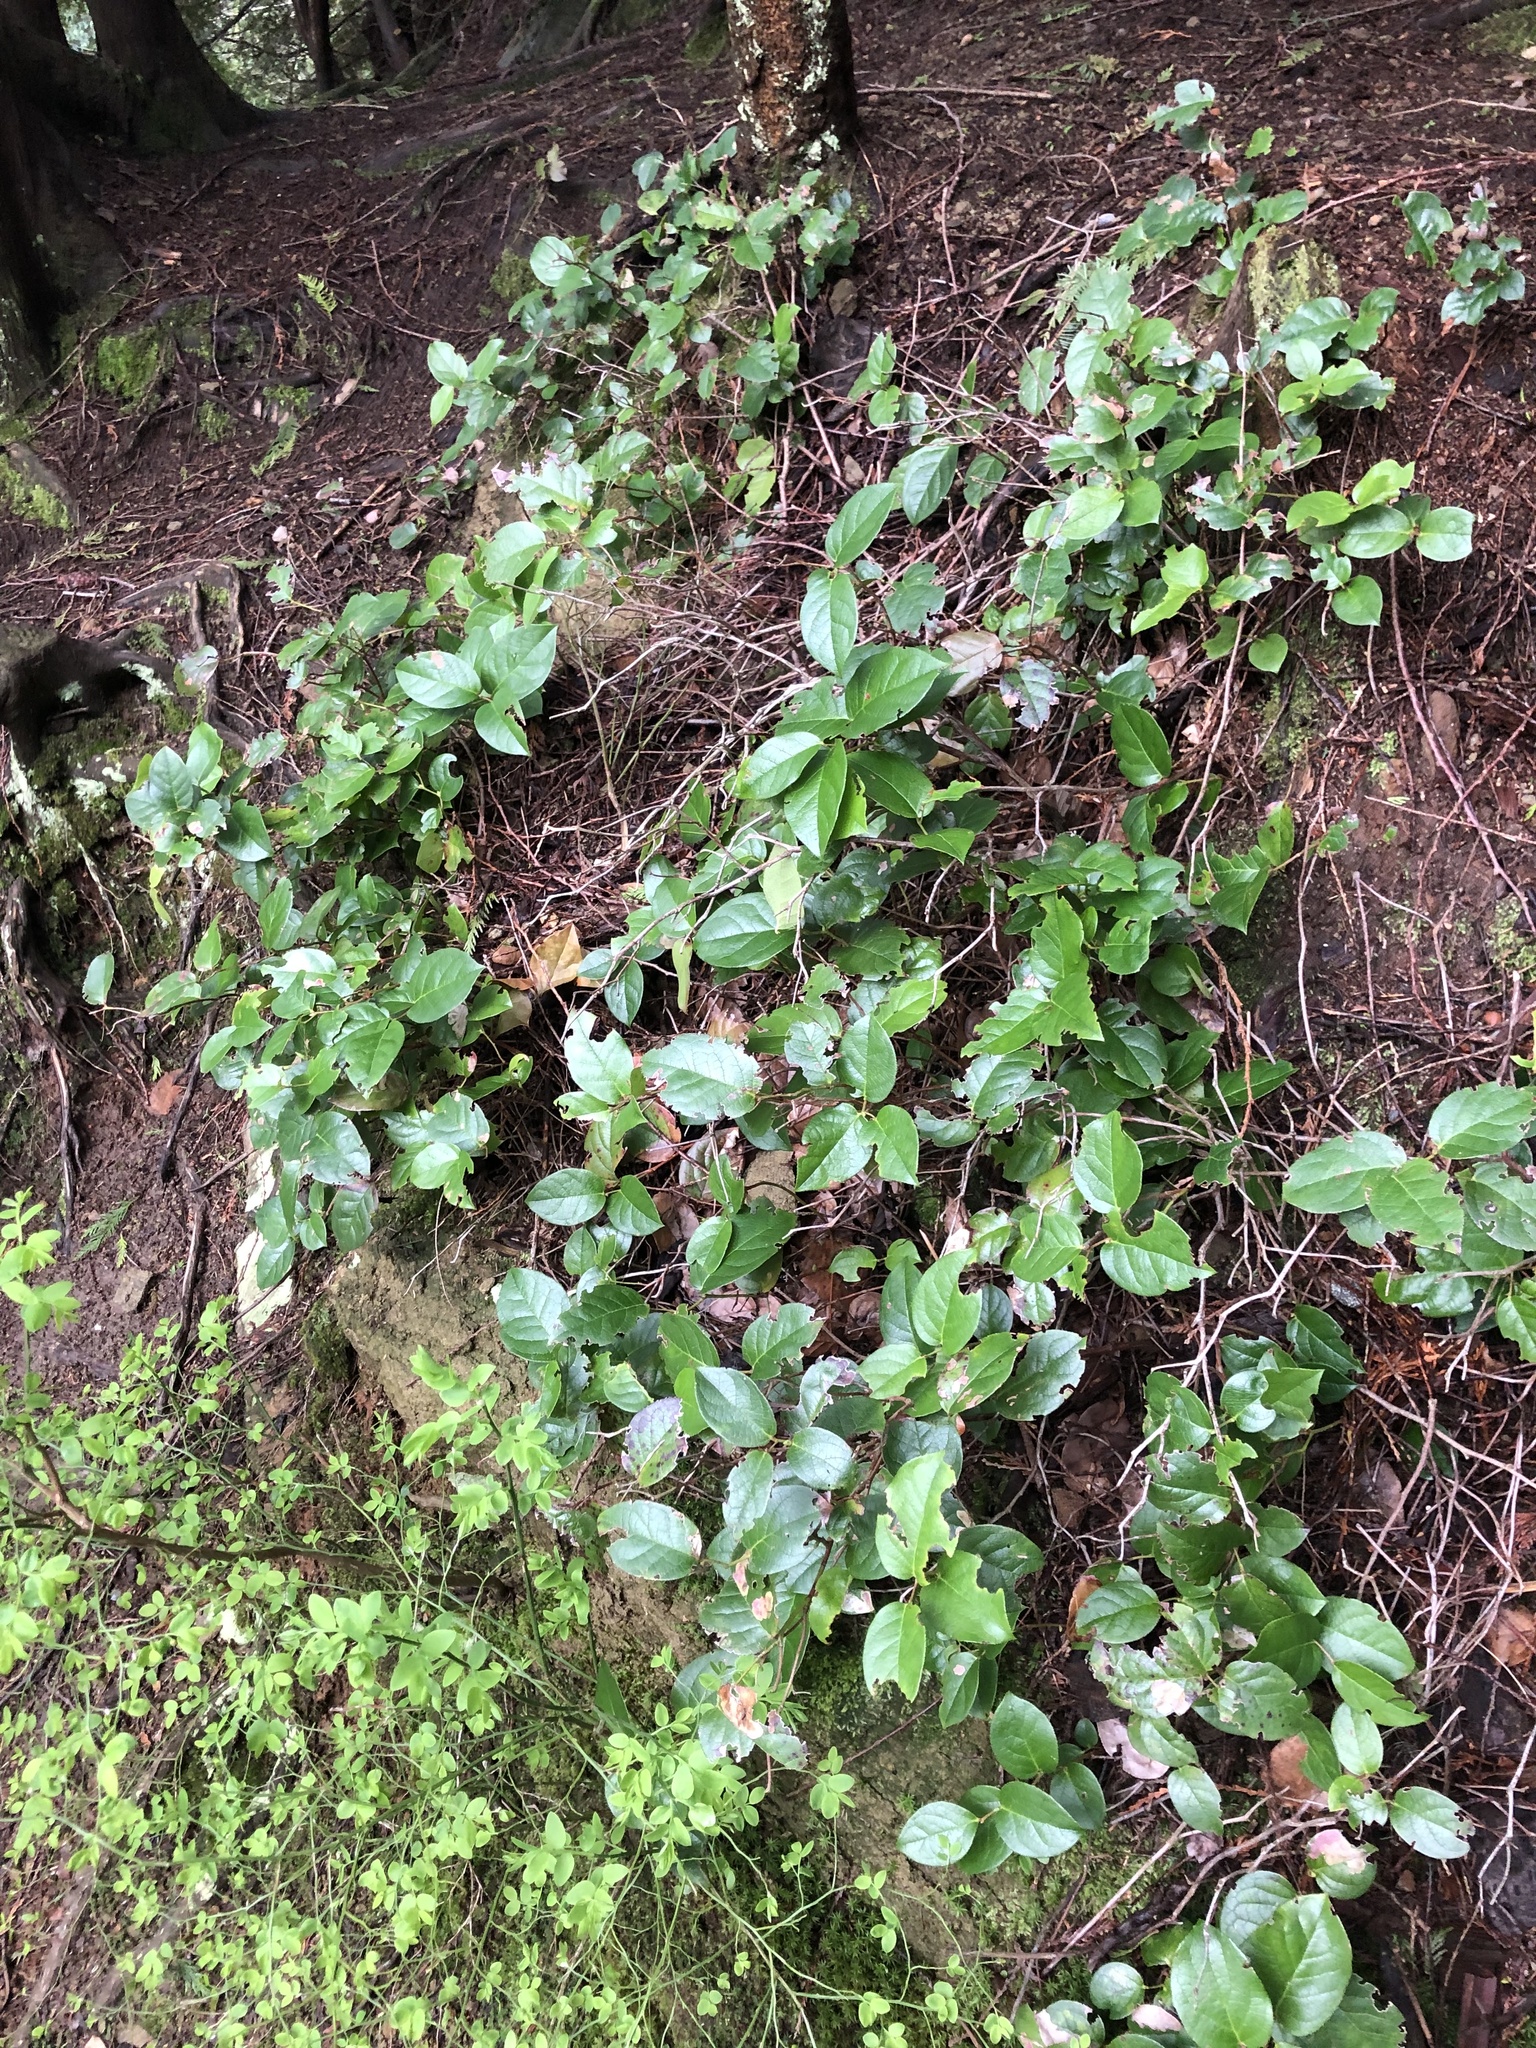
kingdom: Plantae
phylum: Tracheophyta
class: Magnoliopsida
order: Ericales
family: Ericaceae
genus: Gaultheria
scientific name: Gaultheria shallon
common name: Shallon
